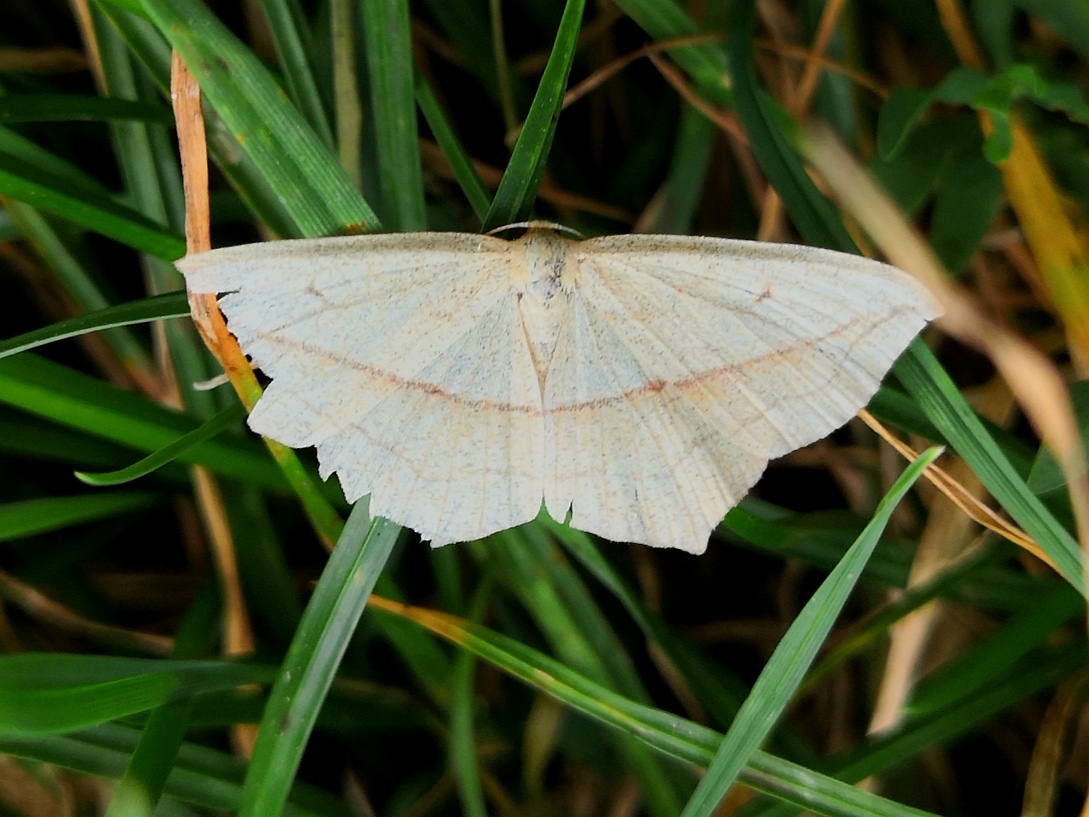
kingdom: Animalia
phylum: Arthropoda
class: Insecta
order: Lepidoptera
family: Geometridae
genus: Timandra
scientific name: Timandra comae
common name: Blood-vein
